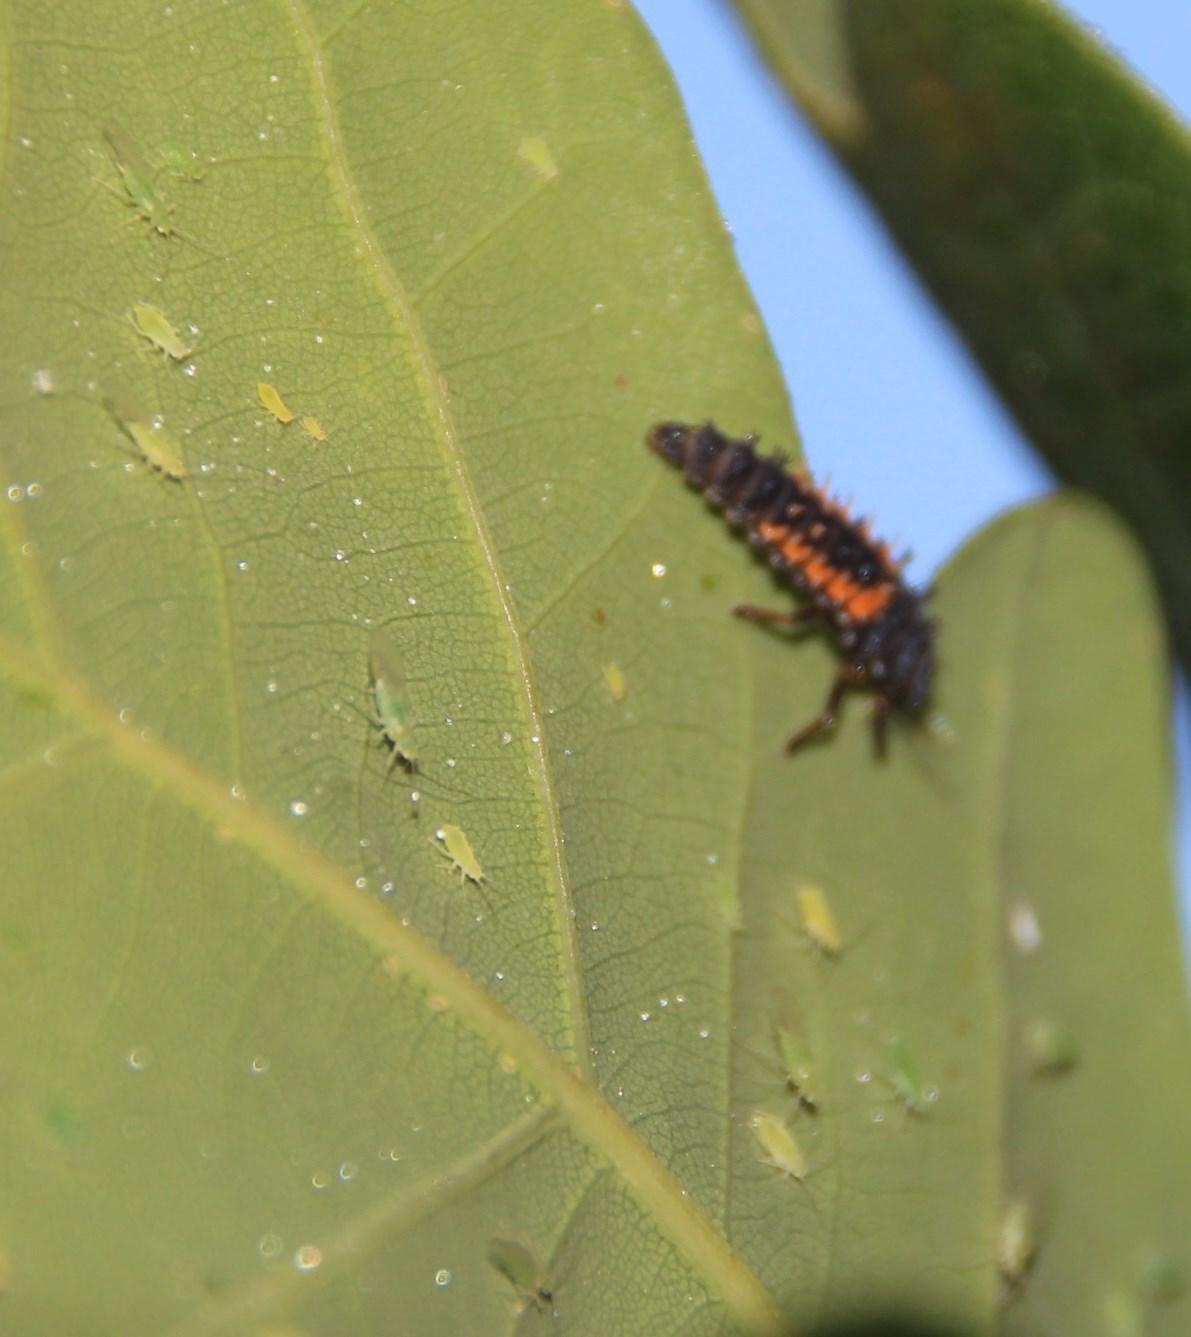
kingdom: Animalia
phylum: Arthropoda
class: Insecta
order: Coleoptera
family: Coccinellidae
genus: Harmonia
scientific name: Harmonia axyridis
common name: Harlequin ladybird
